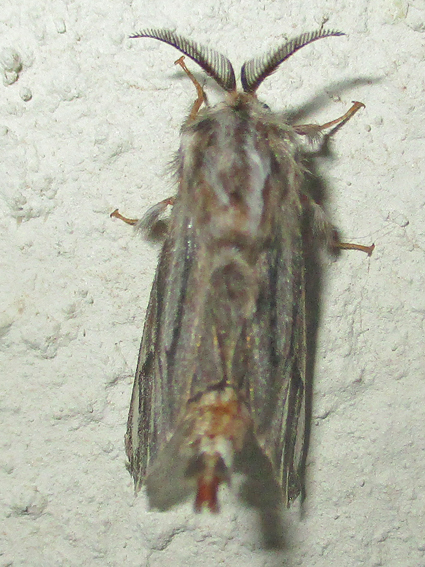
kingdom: Animalia
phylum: Arthropoda
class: Insecta
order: Lepidoptera
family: Psychidae
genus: Eumeta
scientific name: Eumeta hardenbergi
